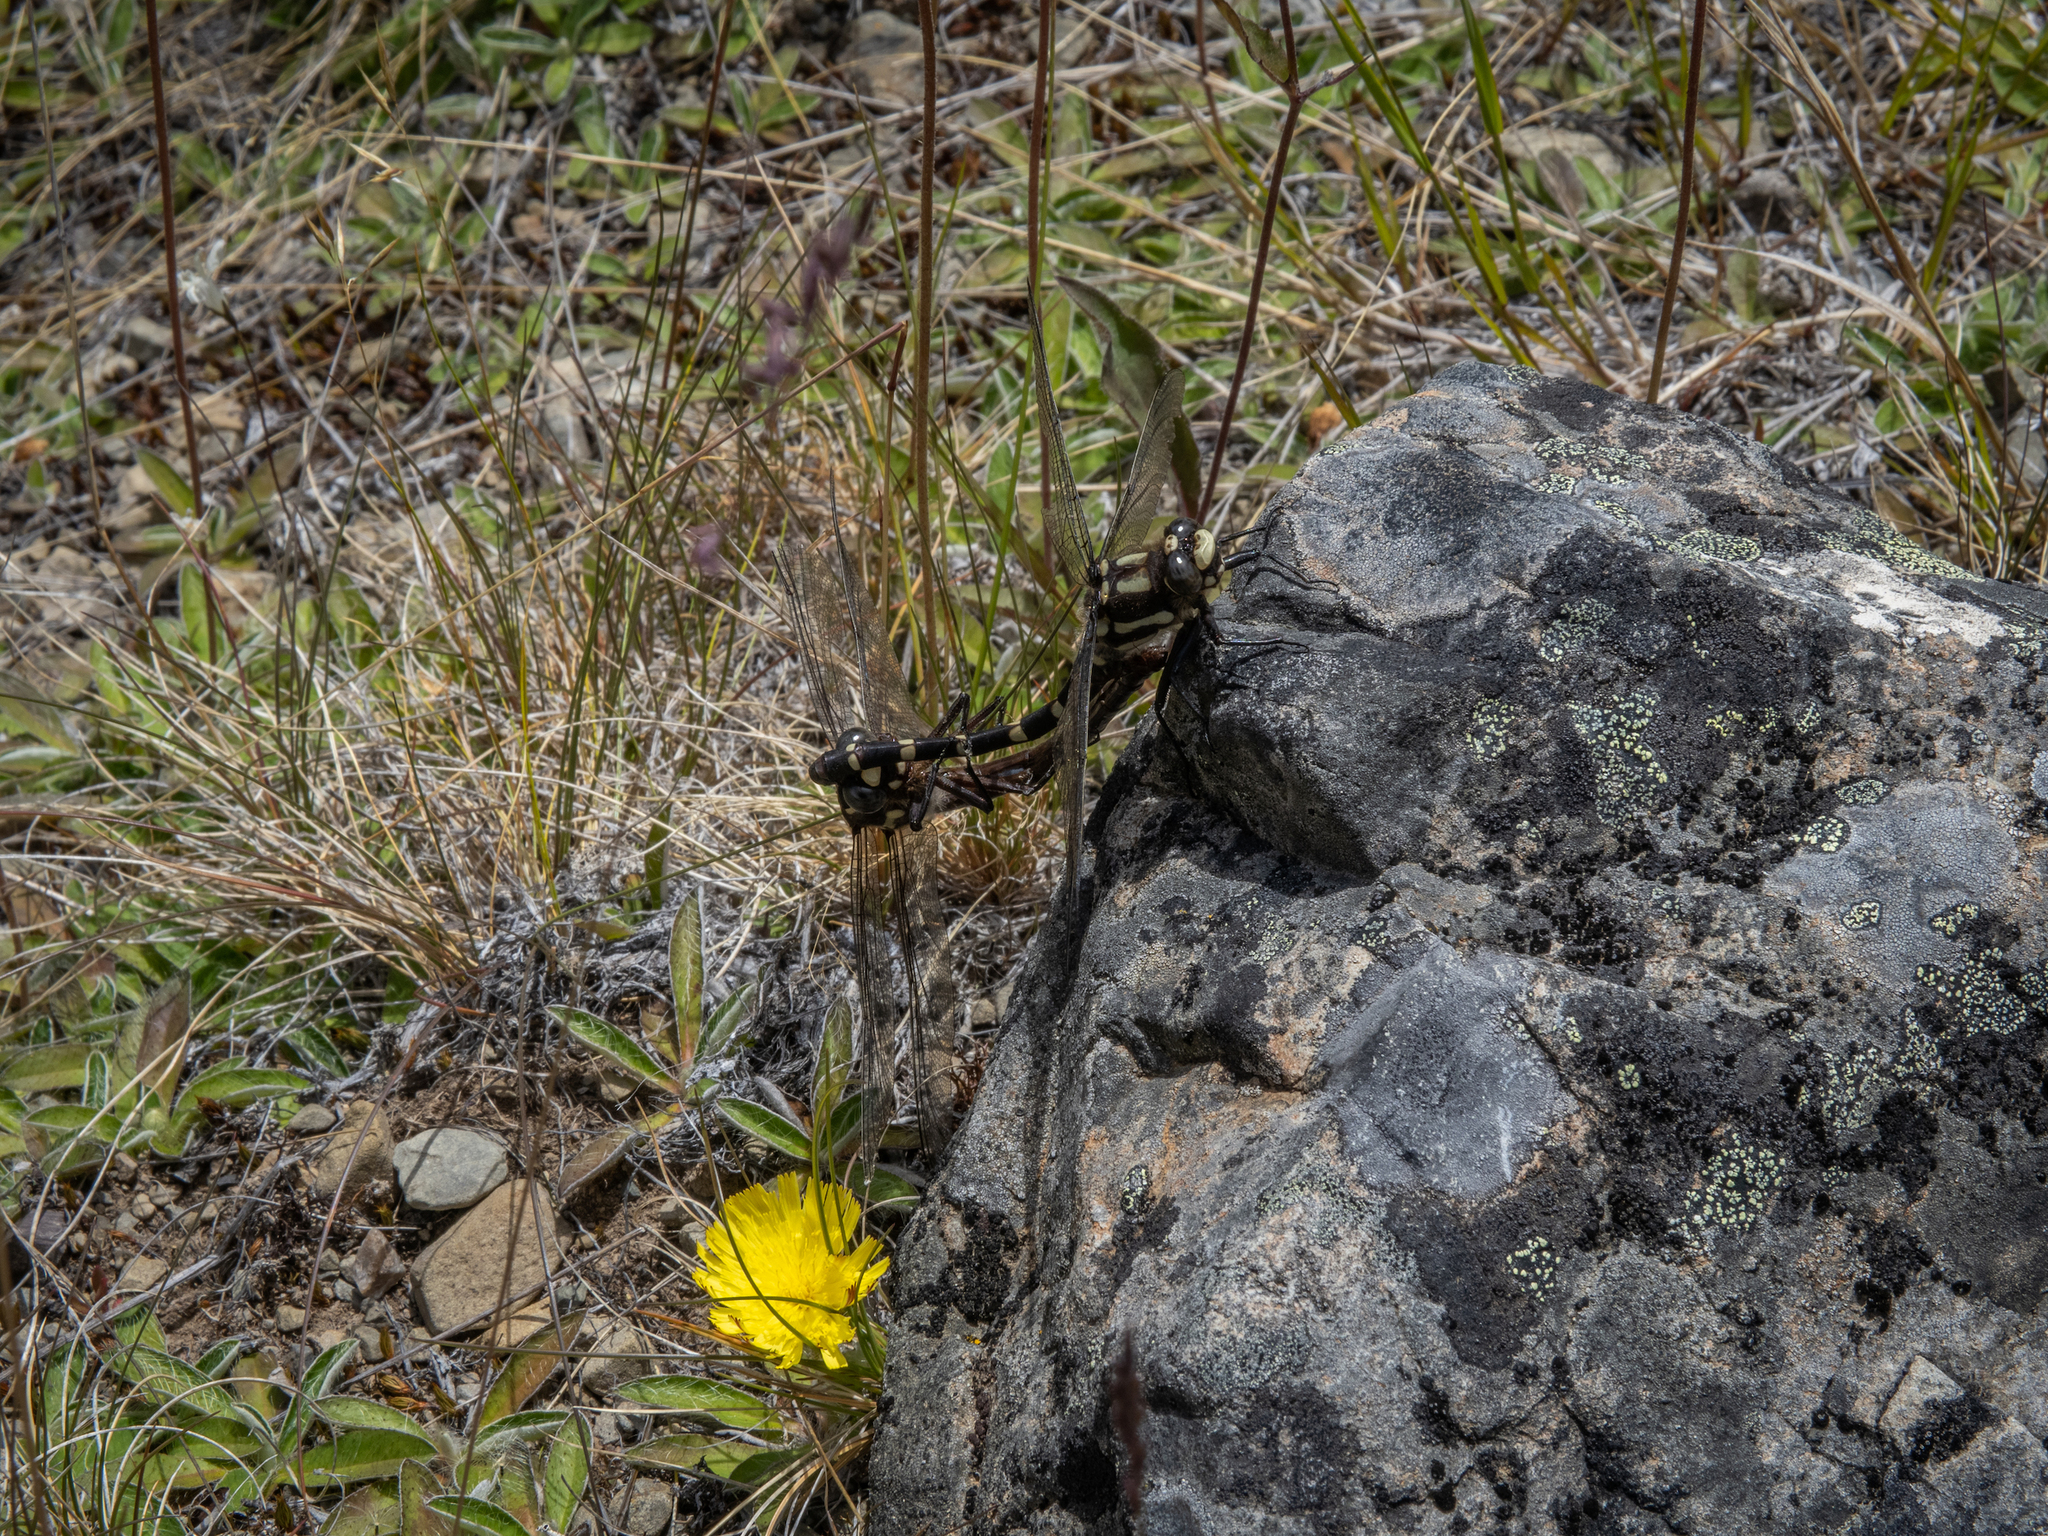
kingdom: Animalia
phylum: Arthropoda
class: Insecta
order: Odonata
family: Petaluridae
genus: Uropetala
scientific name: Uropetala chiltoni
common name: Mountain giant dragonfly
